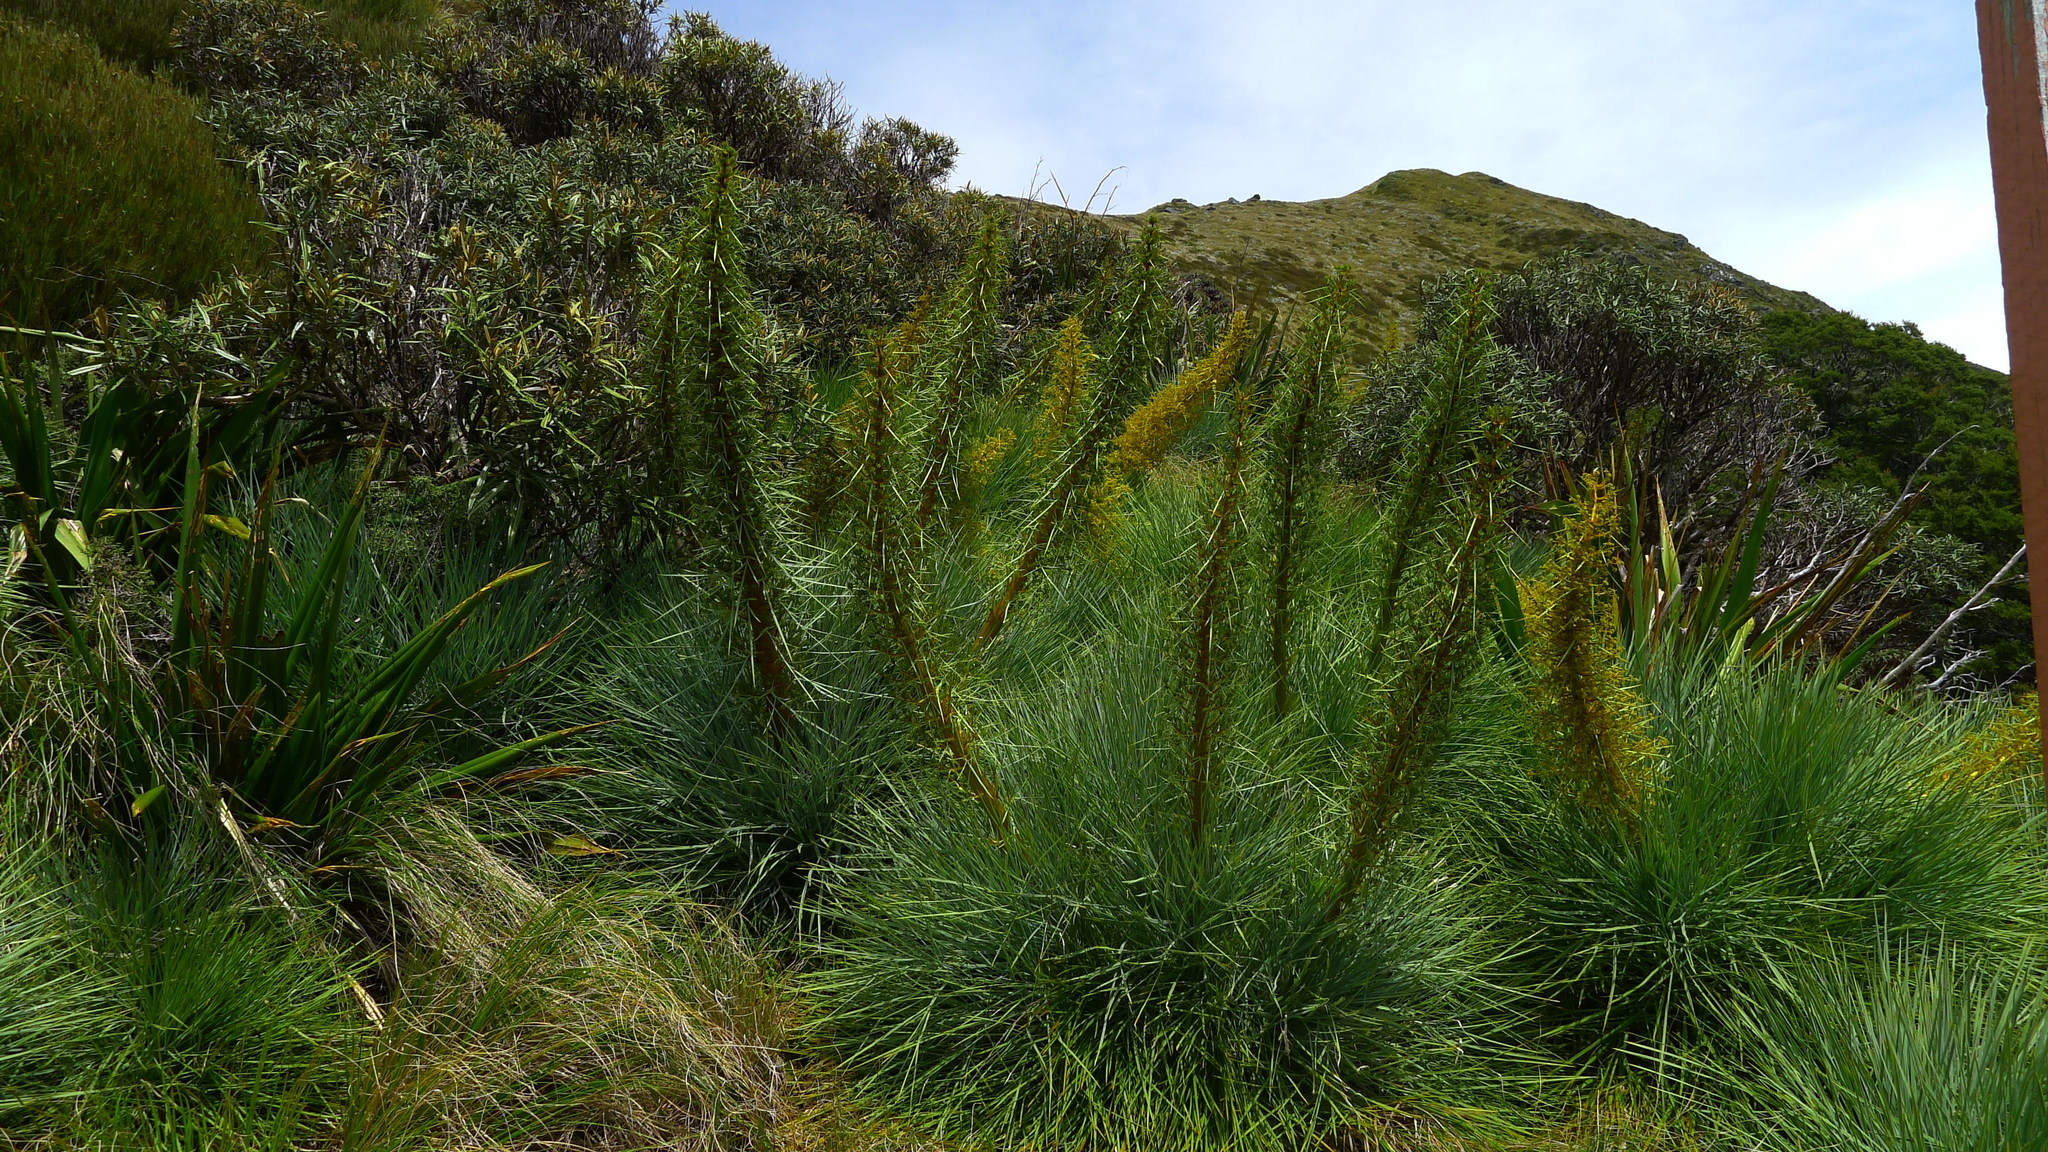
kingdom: Plantae
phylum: Tracheophyta
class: Magnoliopsida
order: Apiales
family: Apiaceae
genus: Aciphylla
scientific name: Aciphylla glaucescens
